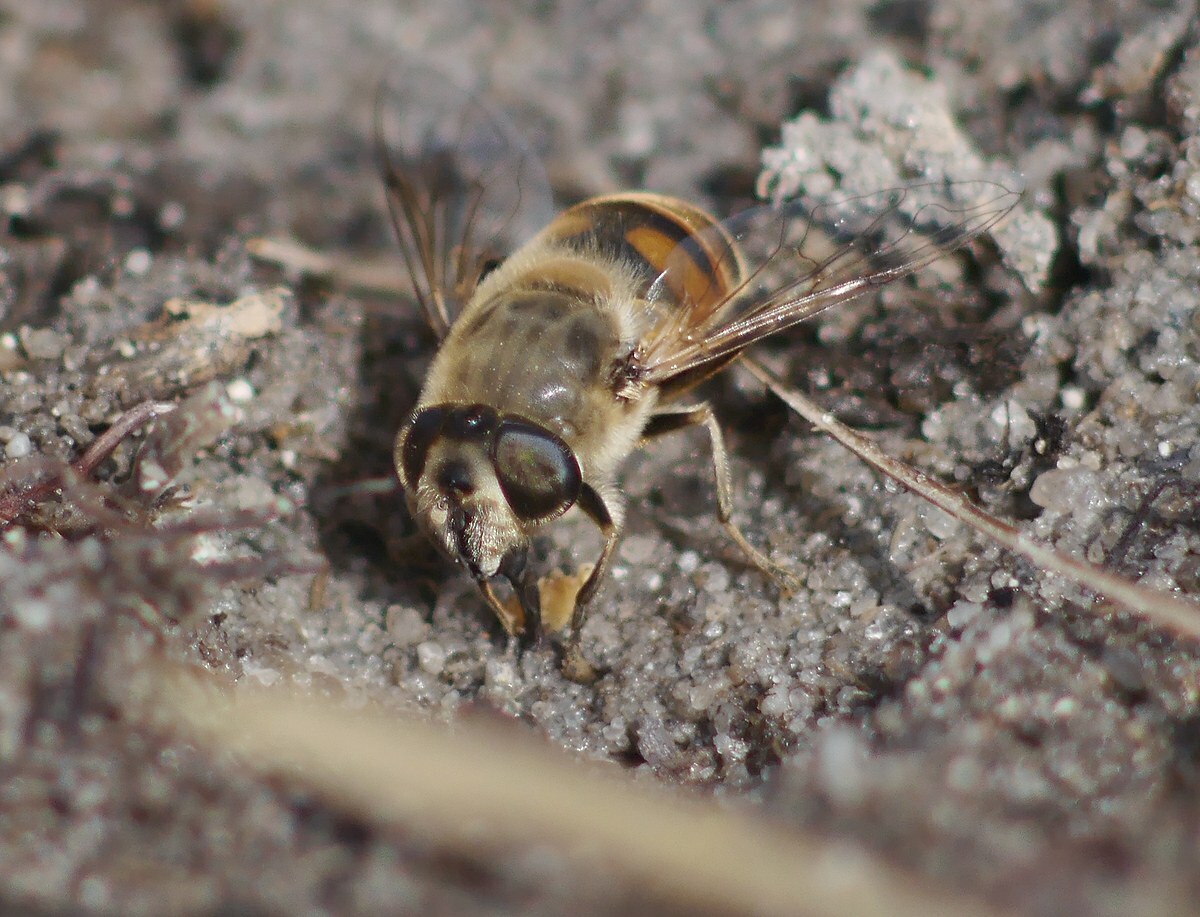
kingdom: Animalia
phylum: Arthropoda
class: Insecta
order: Diptera
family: Syrphidae
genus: Eristalis
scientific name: Eristalis tenax
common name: Drone fly
